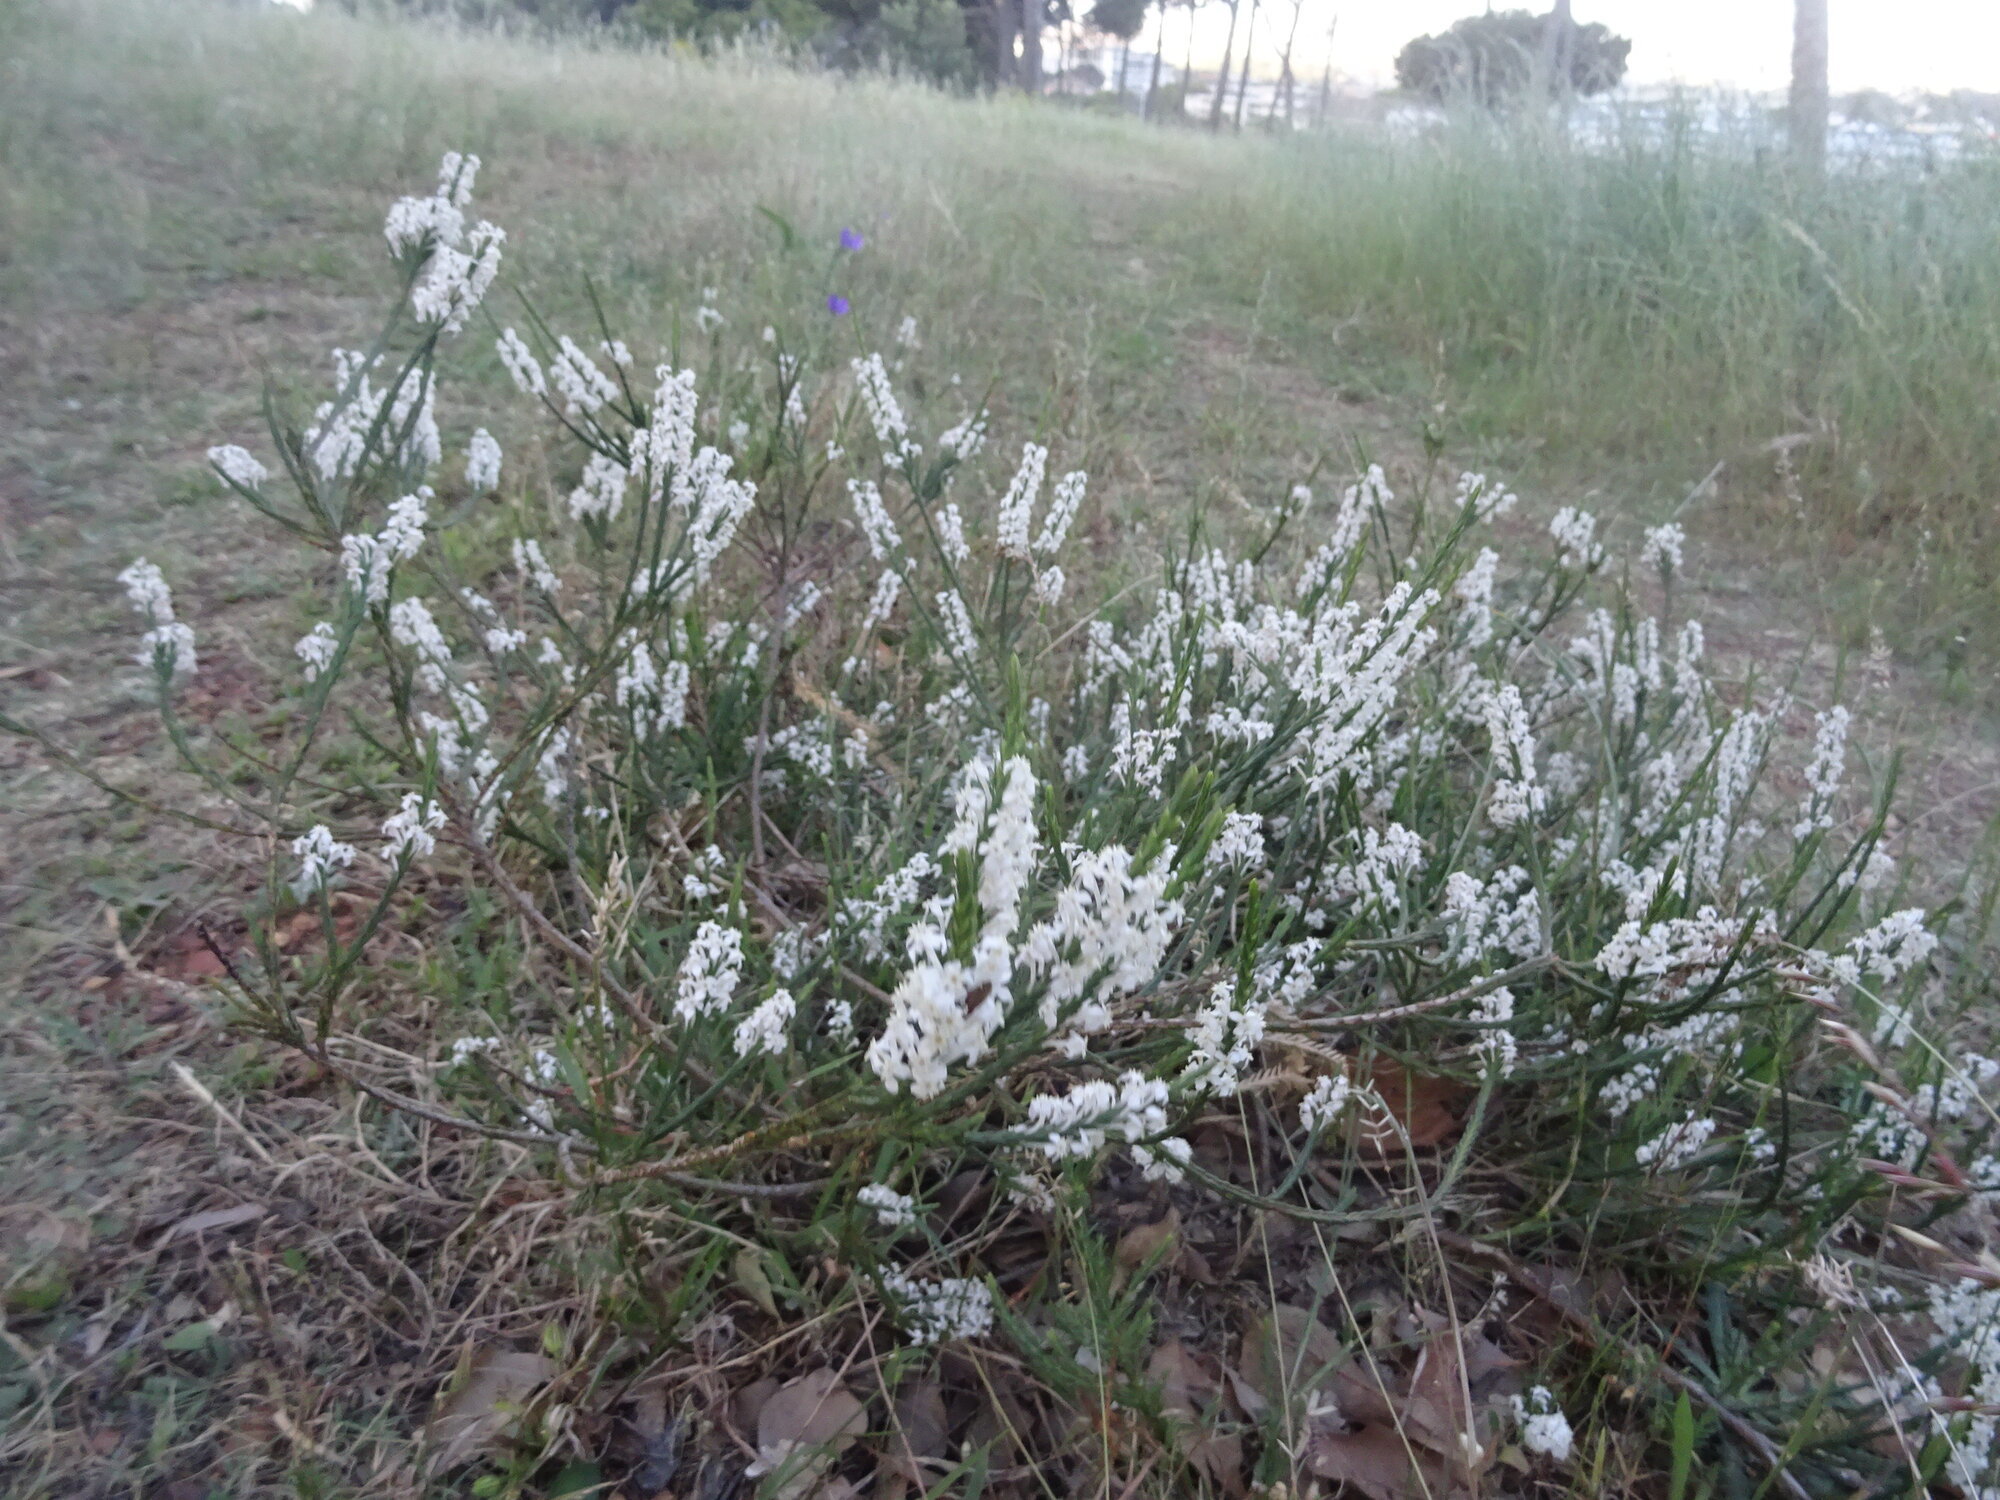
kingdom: Plantae
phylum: Tracheophyta
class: Magnoliopsida
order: Malvales
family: Thymelaeaceae
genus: Struthiola
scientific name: Struthiola dodecandra
